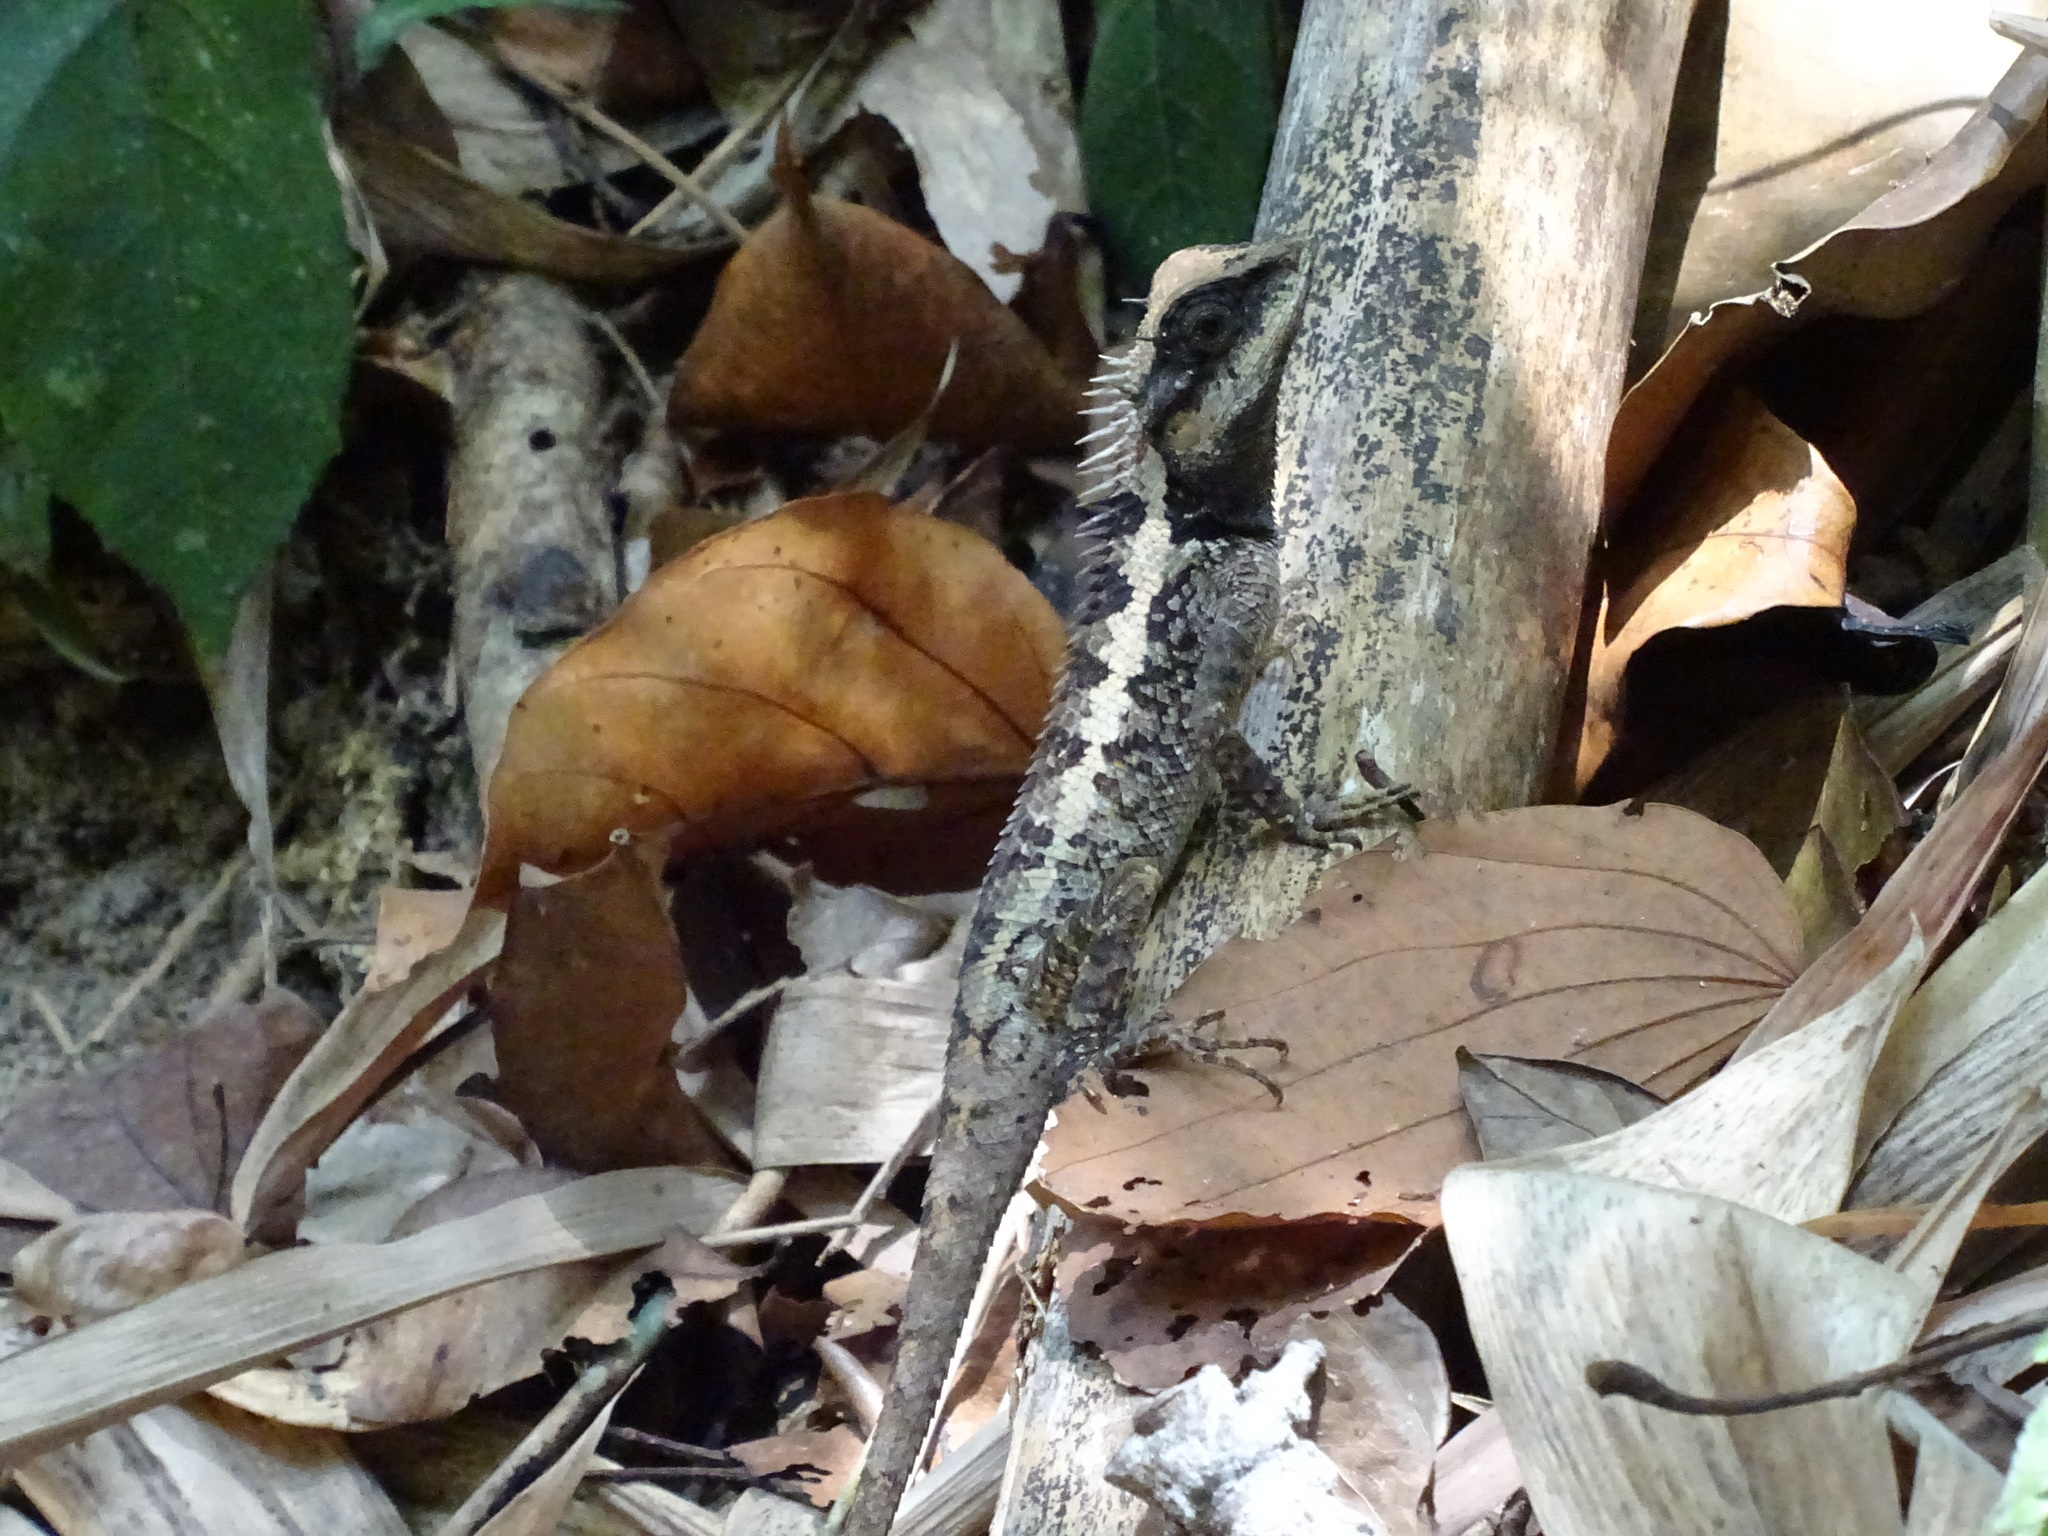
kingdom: Animalia
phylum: Chordata
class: Squamata
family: Agamidae
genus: Calotes
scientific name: Calotes emma
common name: Thailand bloodsucker
